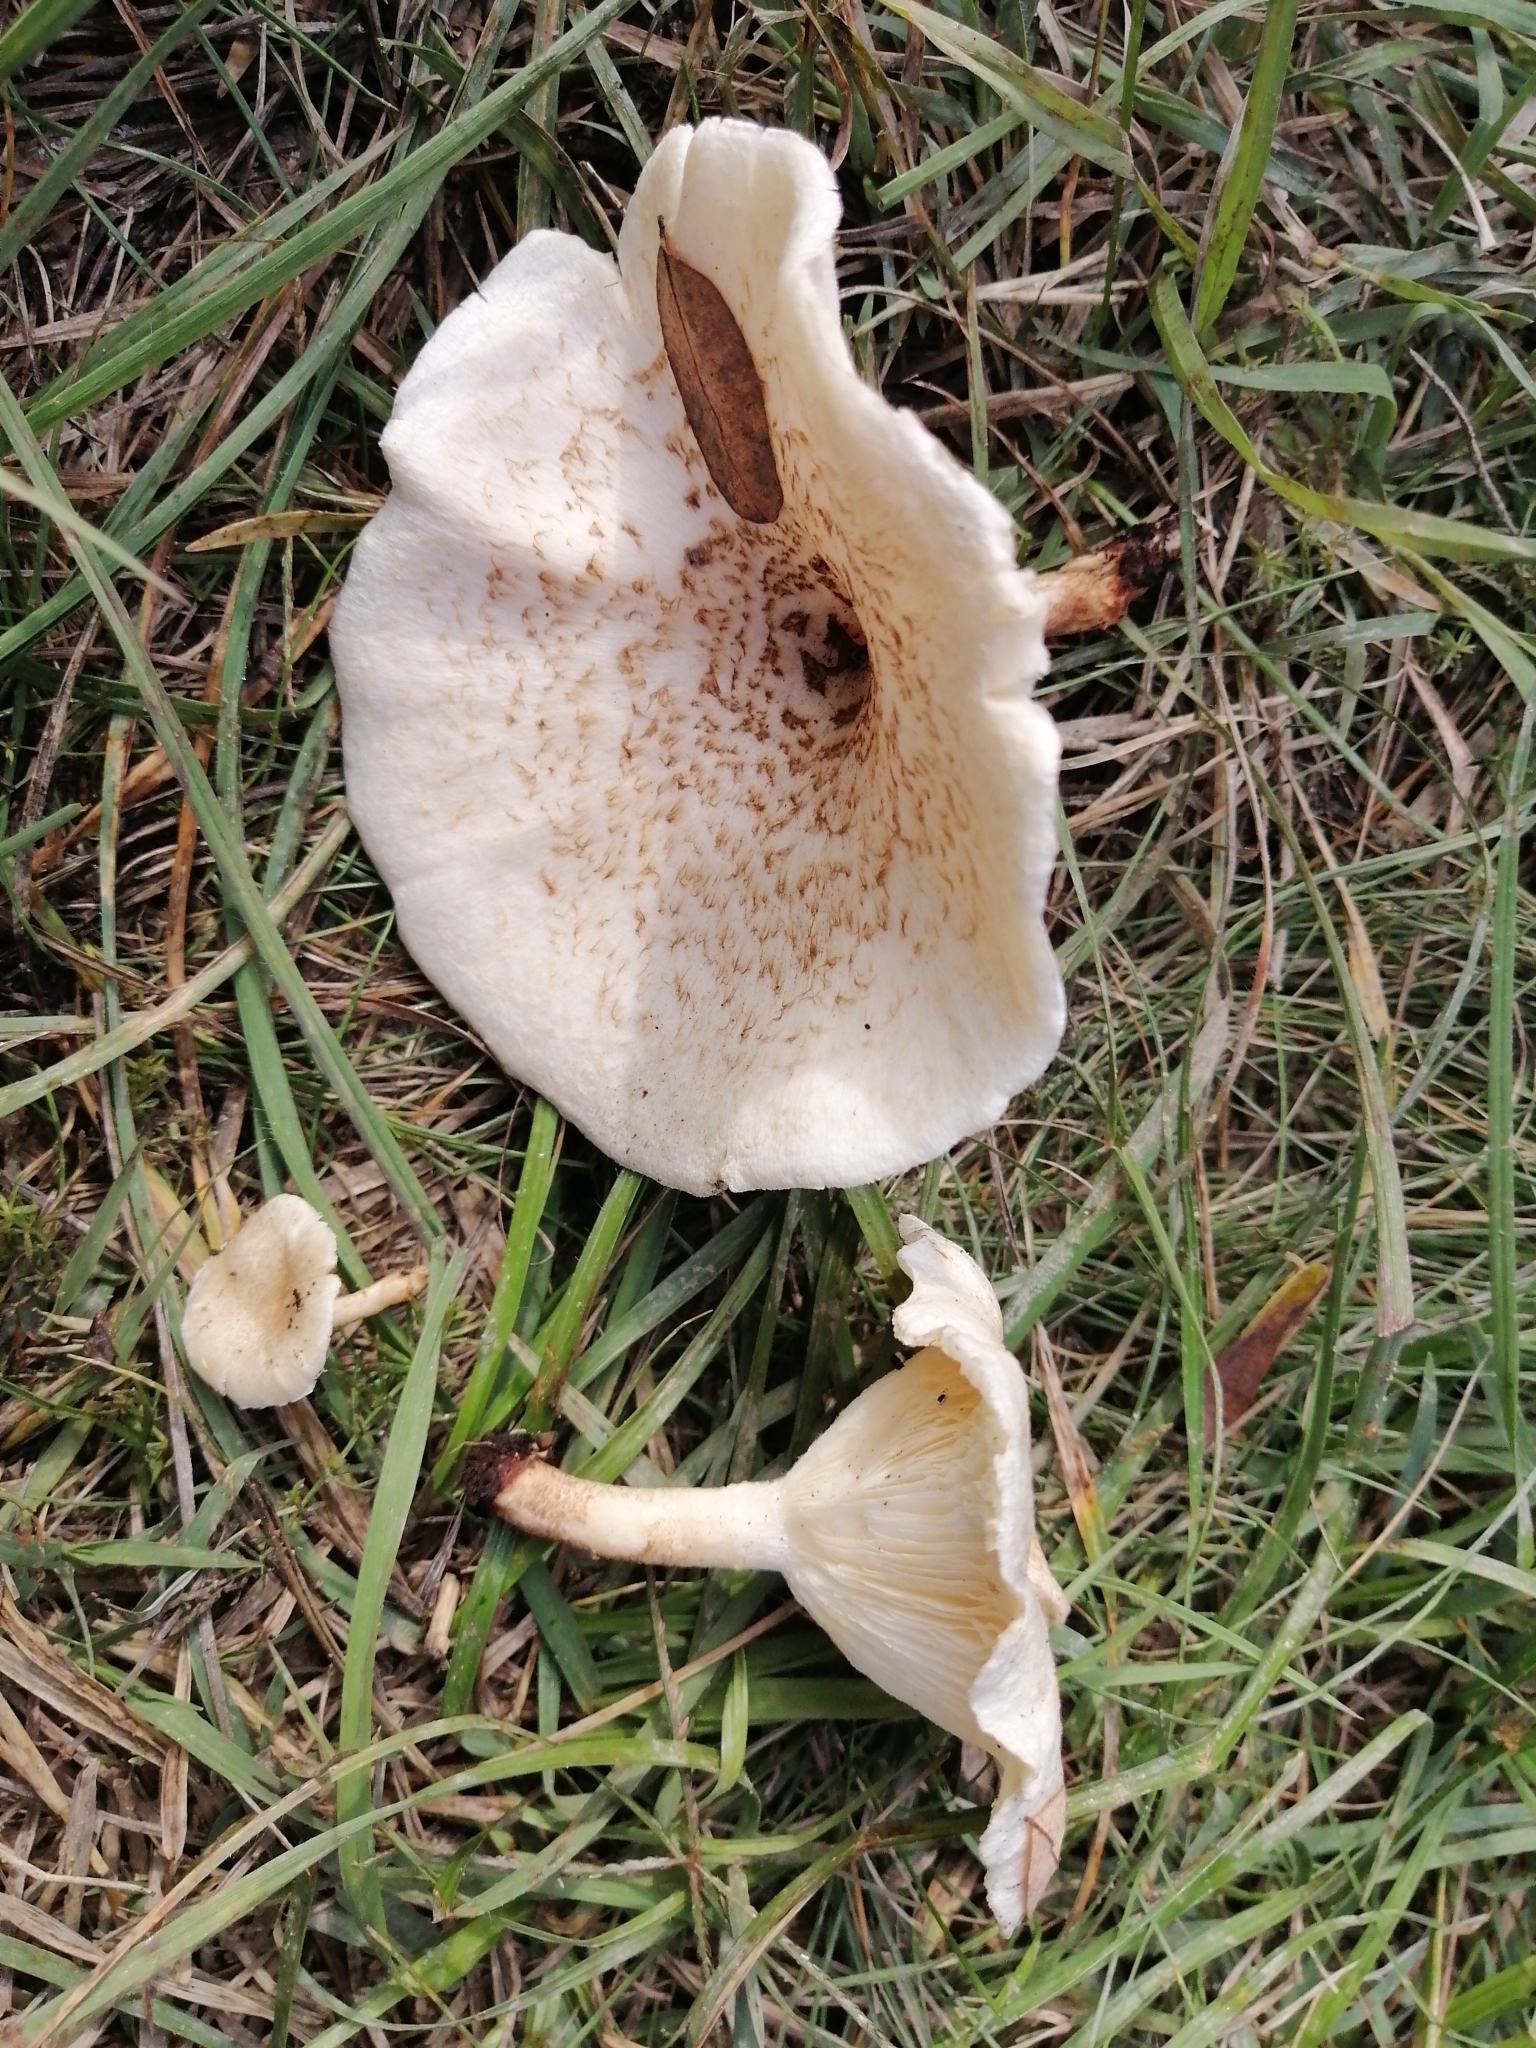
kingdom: Fungi
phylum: Basidiomycota
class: Agaricomycetes
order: Polyporales
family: Polyporaceae
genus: Lentinus
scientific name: Lentinus tigrinus
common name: Tiger sawgill
